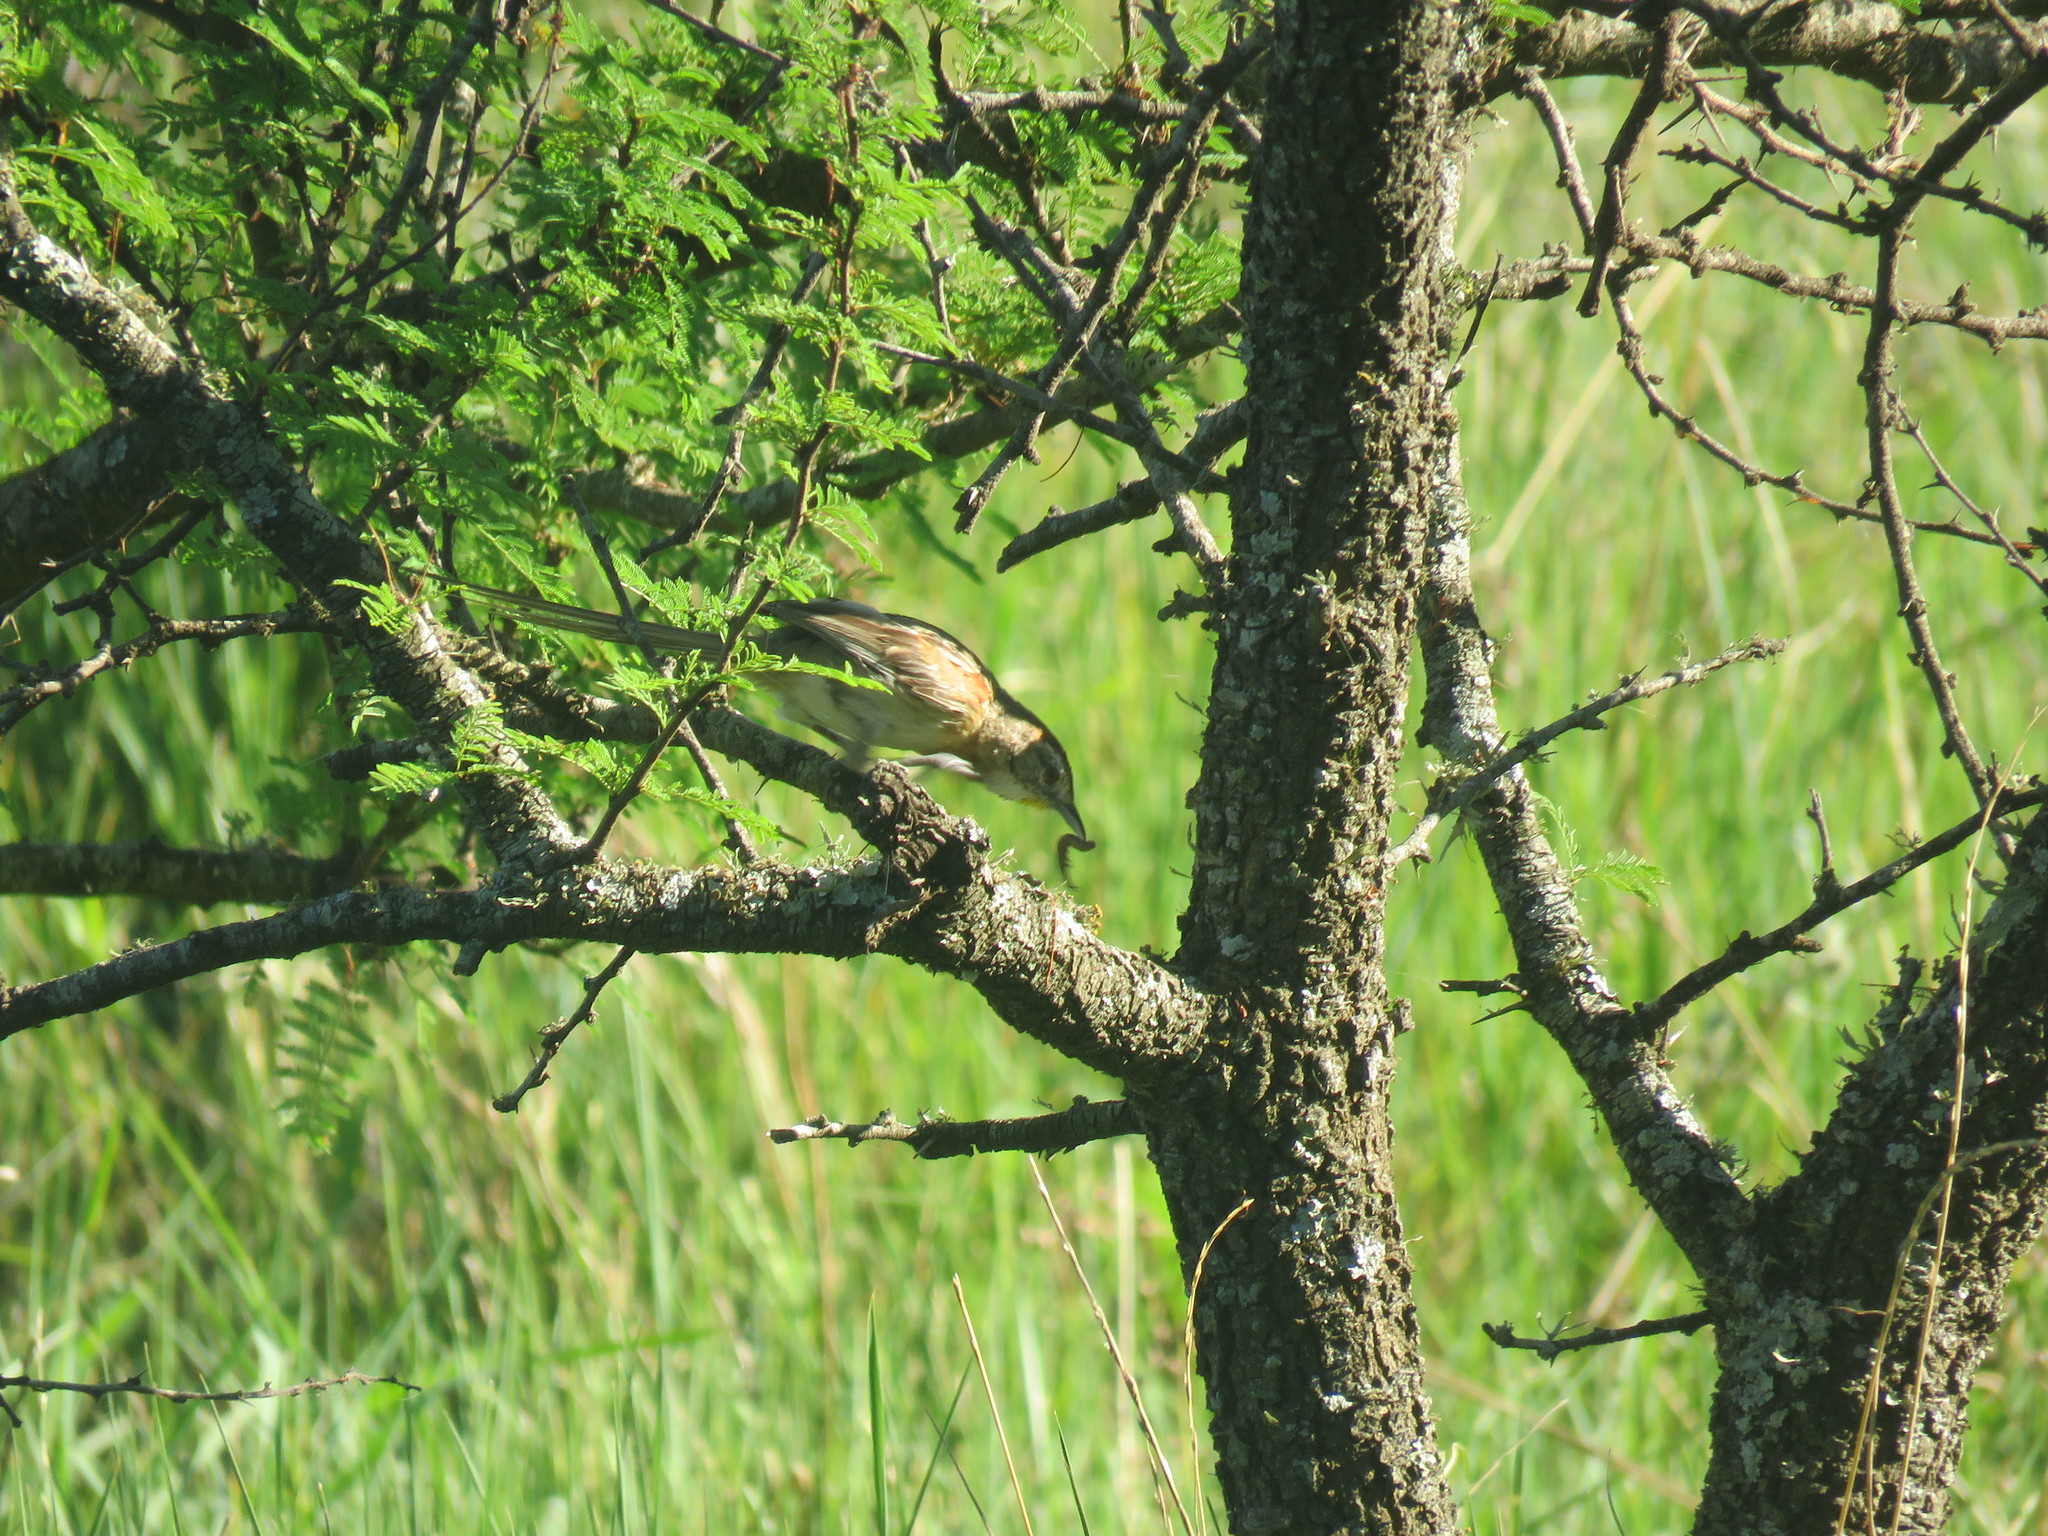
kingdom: Animalia
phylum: Chordata
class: Aves
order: Passeriformes
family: Furnariidae
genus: Schoeniophylax
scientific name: Schoeniophylax phryganophilus
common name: Chotoy spinetail
